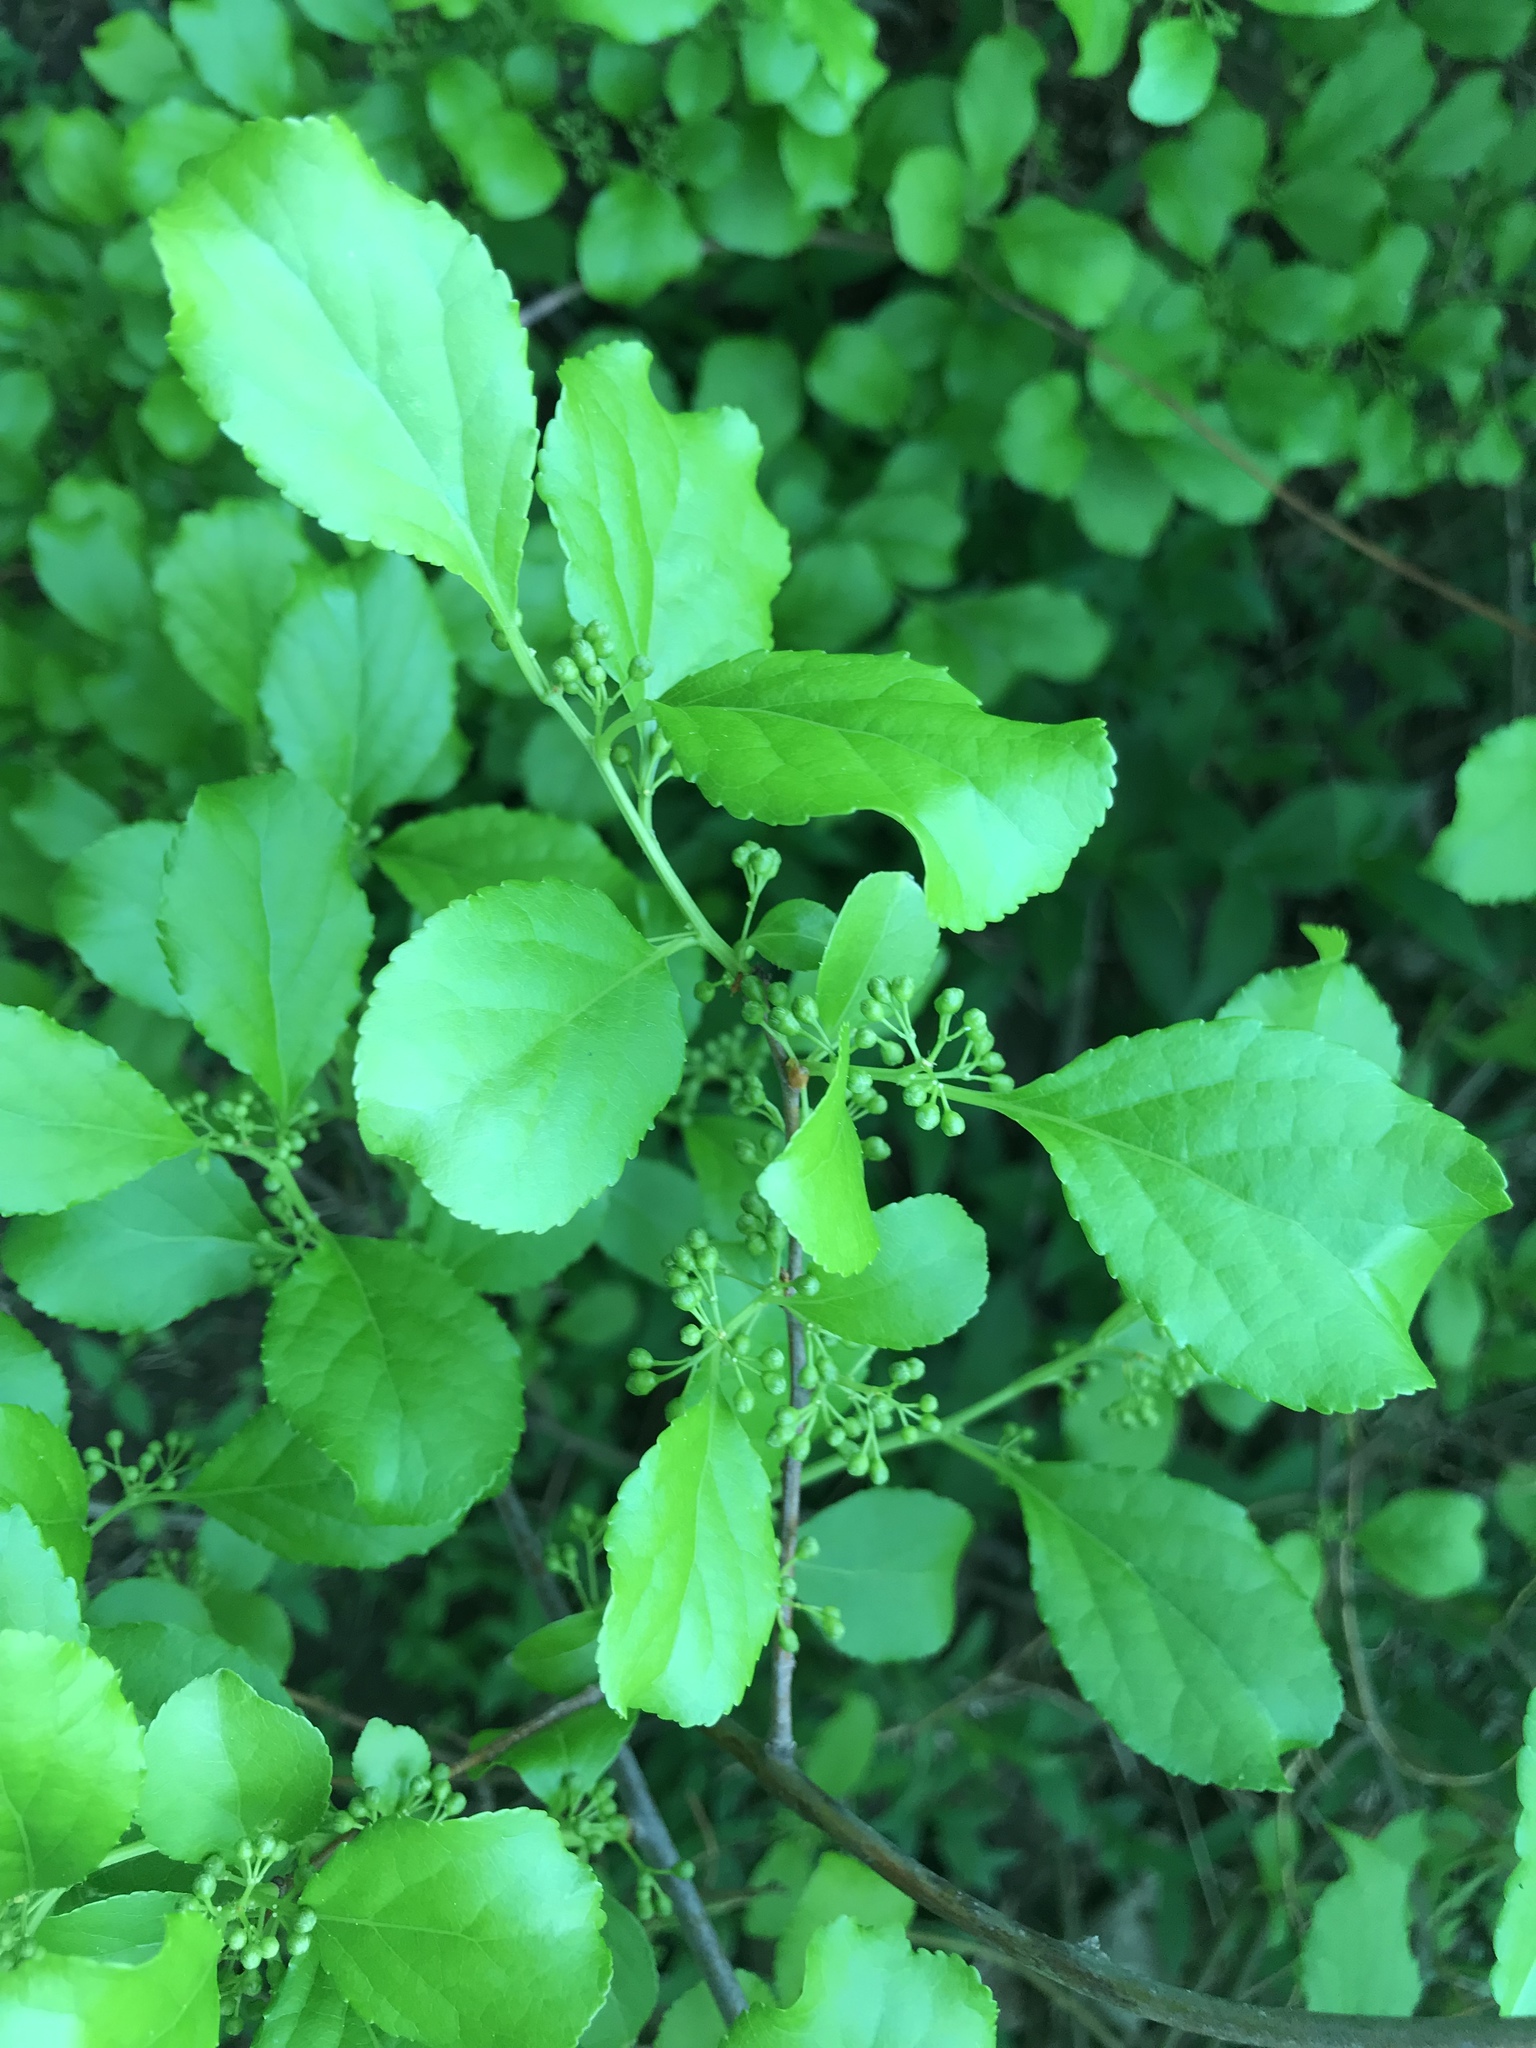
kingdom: Plantae
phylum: Tracheophyta
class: Magnoliopsida
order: Celastrales
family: Celastraceae
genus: Celastrus
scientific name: Celastrus orbiculatus
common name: Oriental bittersweet
